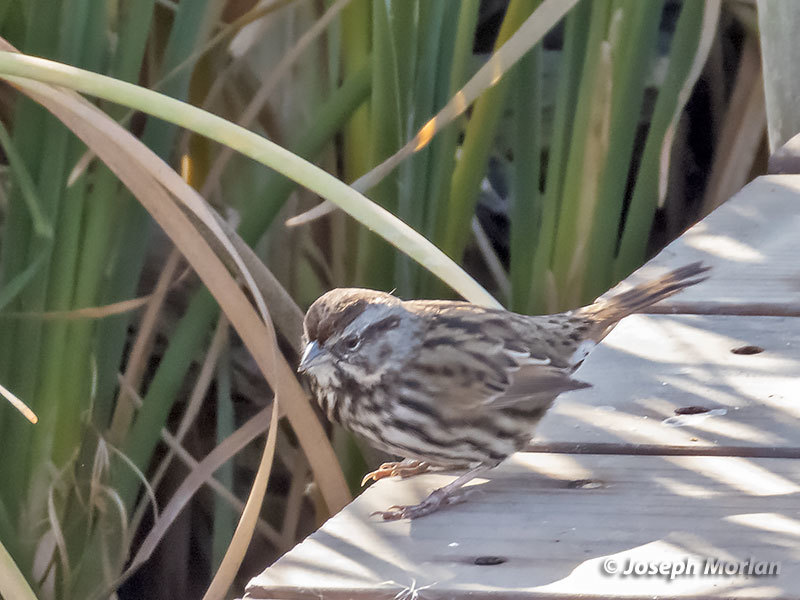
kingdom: Animalia
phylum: Chordata
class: Aves
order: Passeriformes
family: Passerellidae
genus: Melospiza
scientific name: Melospiza melodia
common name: Song sparrow
